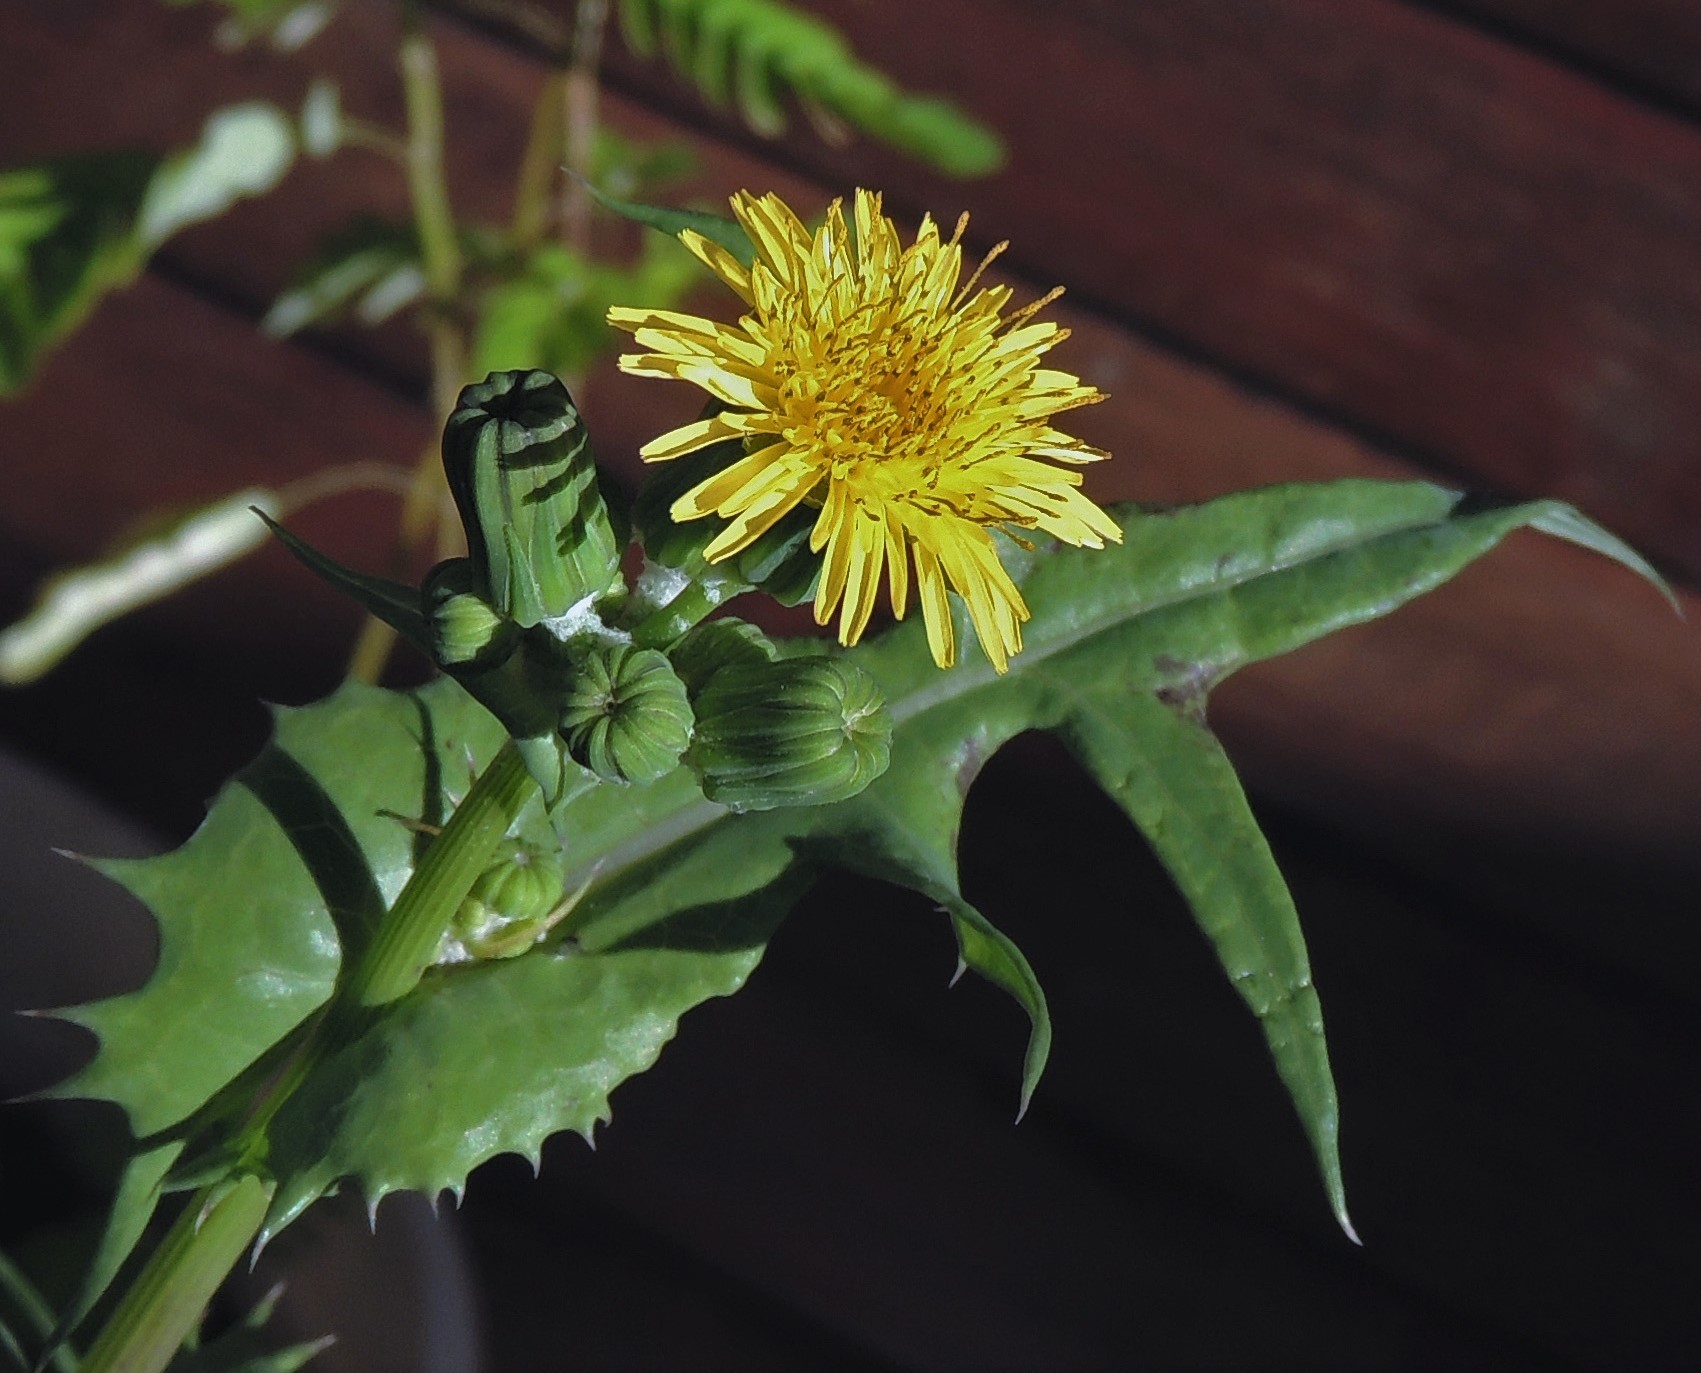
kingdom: Plantae
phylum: Tracheophyta
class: Magnoliopsida
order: Asterales
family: Asteraceae
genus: Sonchus
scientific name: Sonchus oleraceus
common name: Common sowthistle
